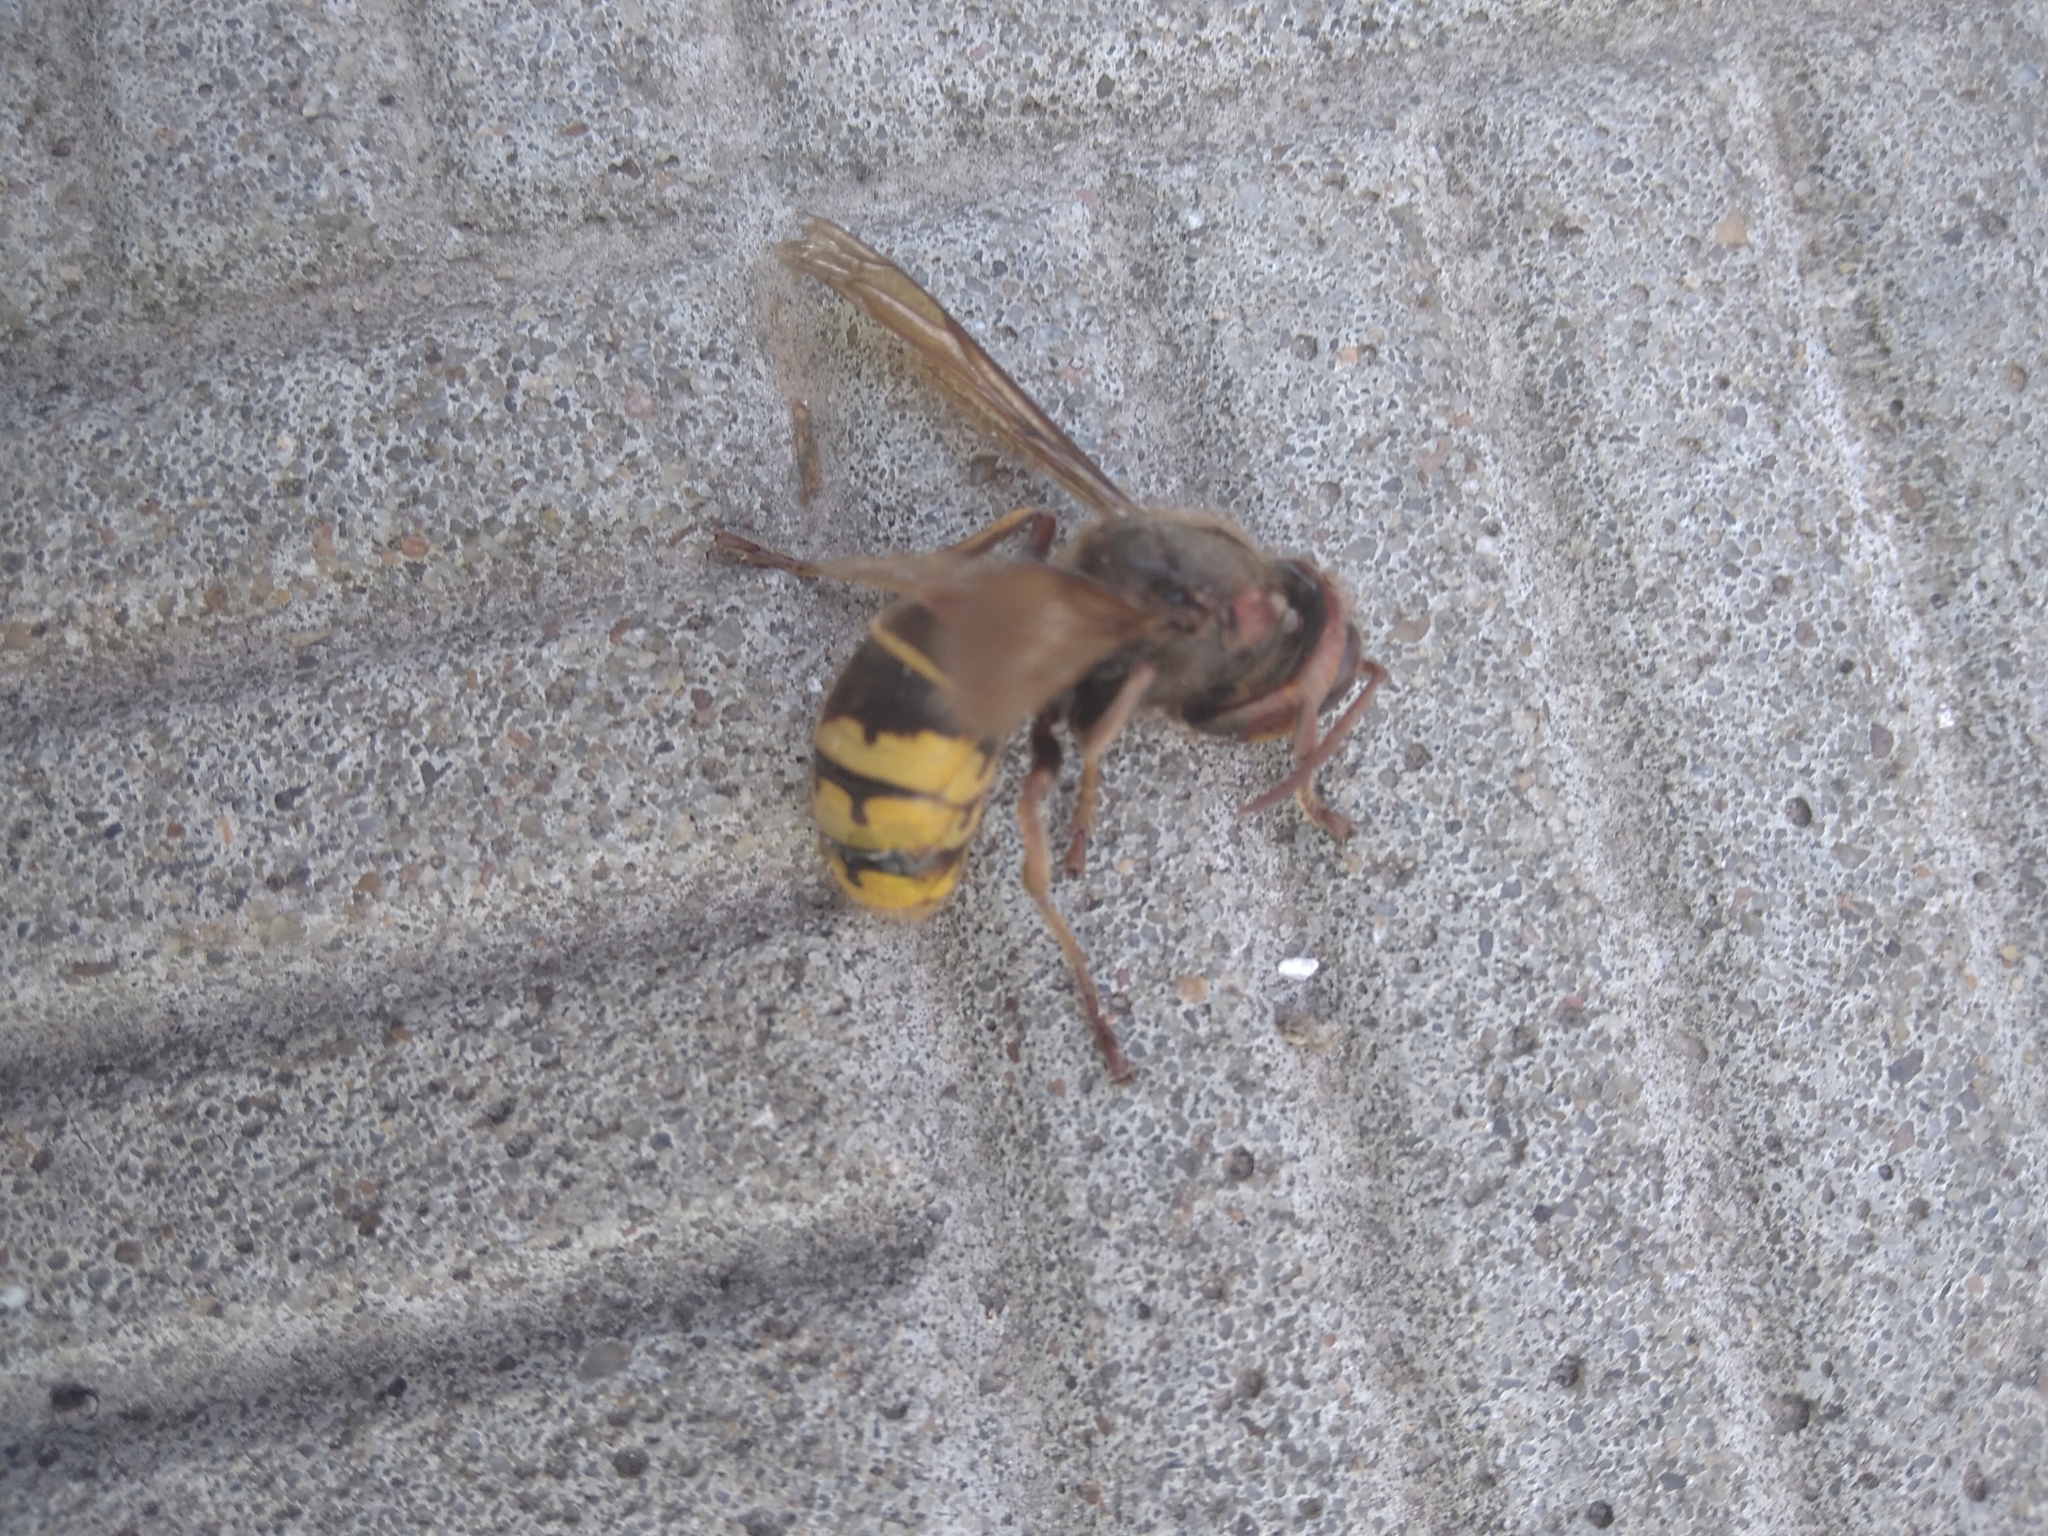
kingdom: Animalia
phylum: Arthropoda
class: Insecta
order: Hymenoptera
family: Vespidae
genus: Vespa
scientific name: Vespa crabro
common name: Hornet
